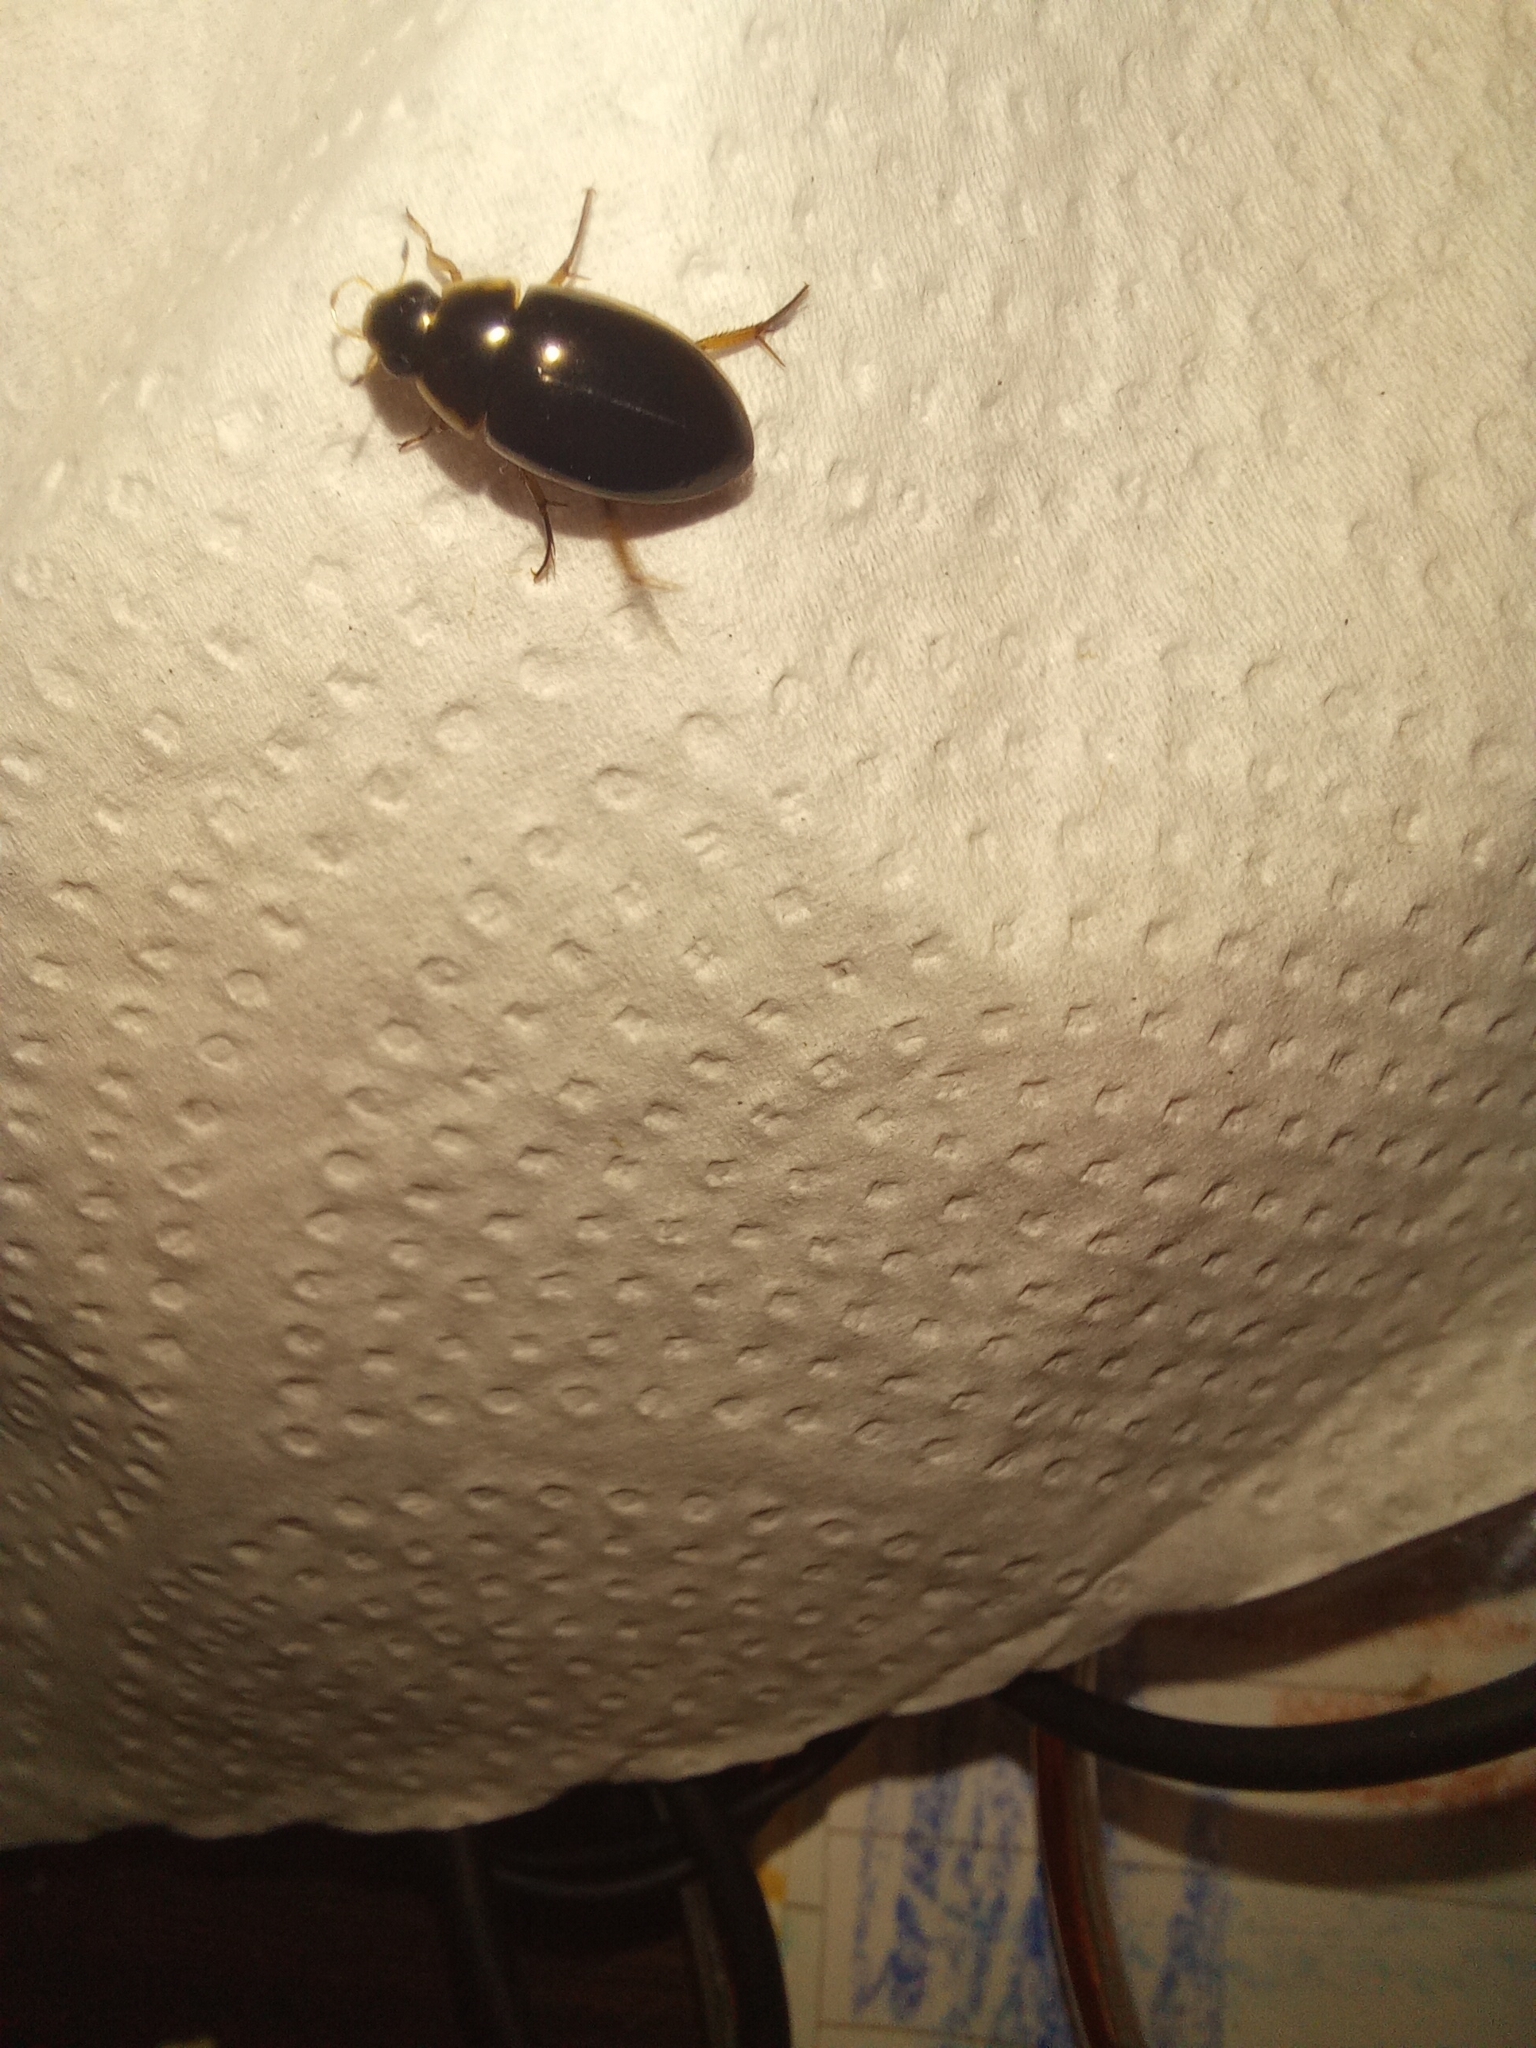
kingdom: Animalia
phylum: Arthropoda
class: Insecta
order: Coleoptera
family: Hydrophilidae
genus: Tropisternus
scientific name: Tropisternus lateralis
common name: Lateral-banded water scavenger beetle
